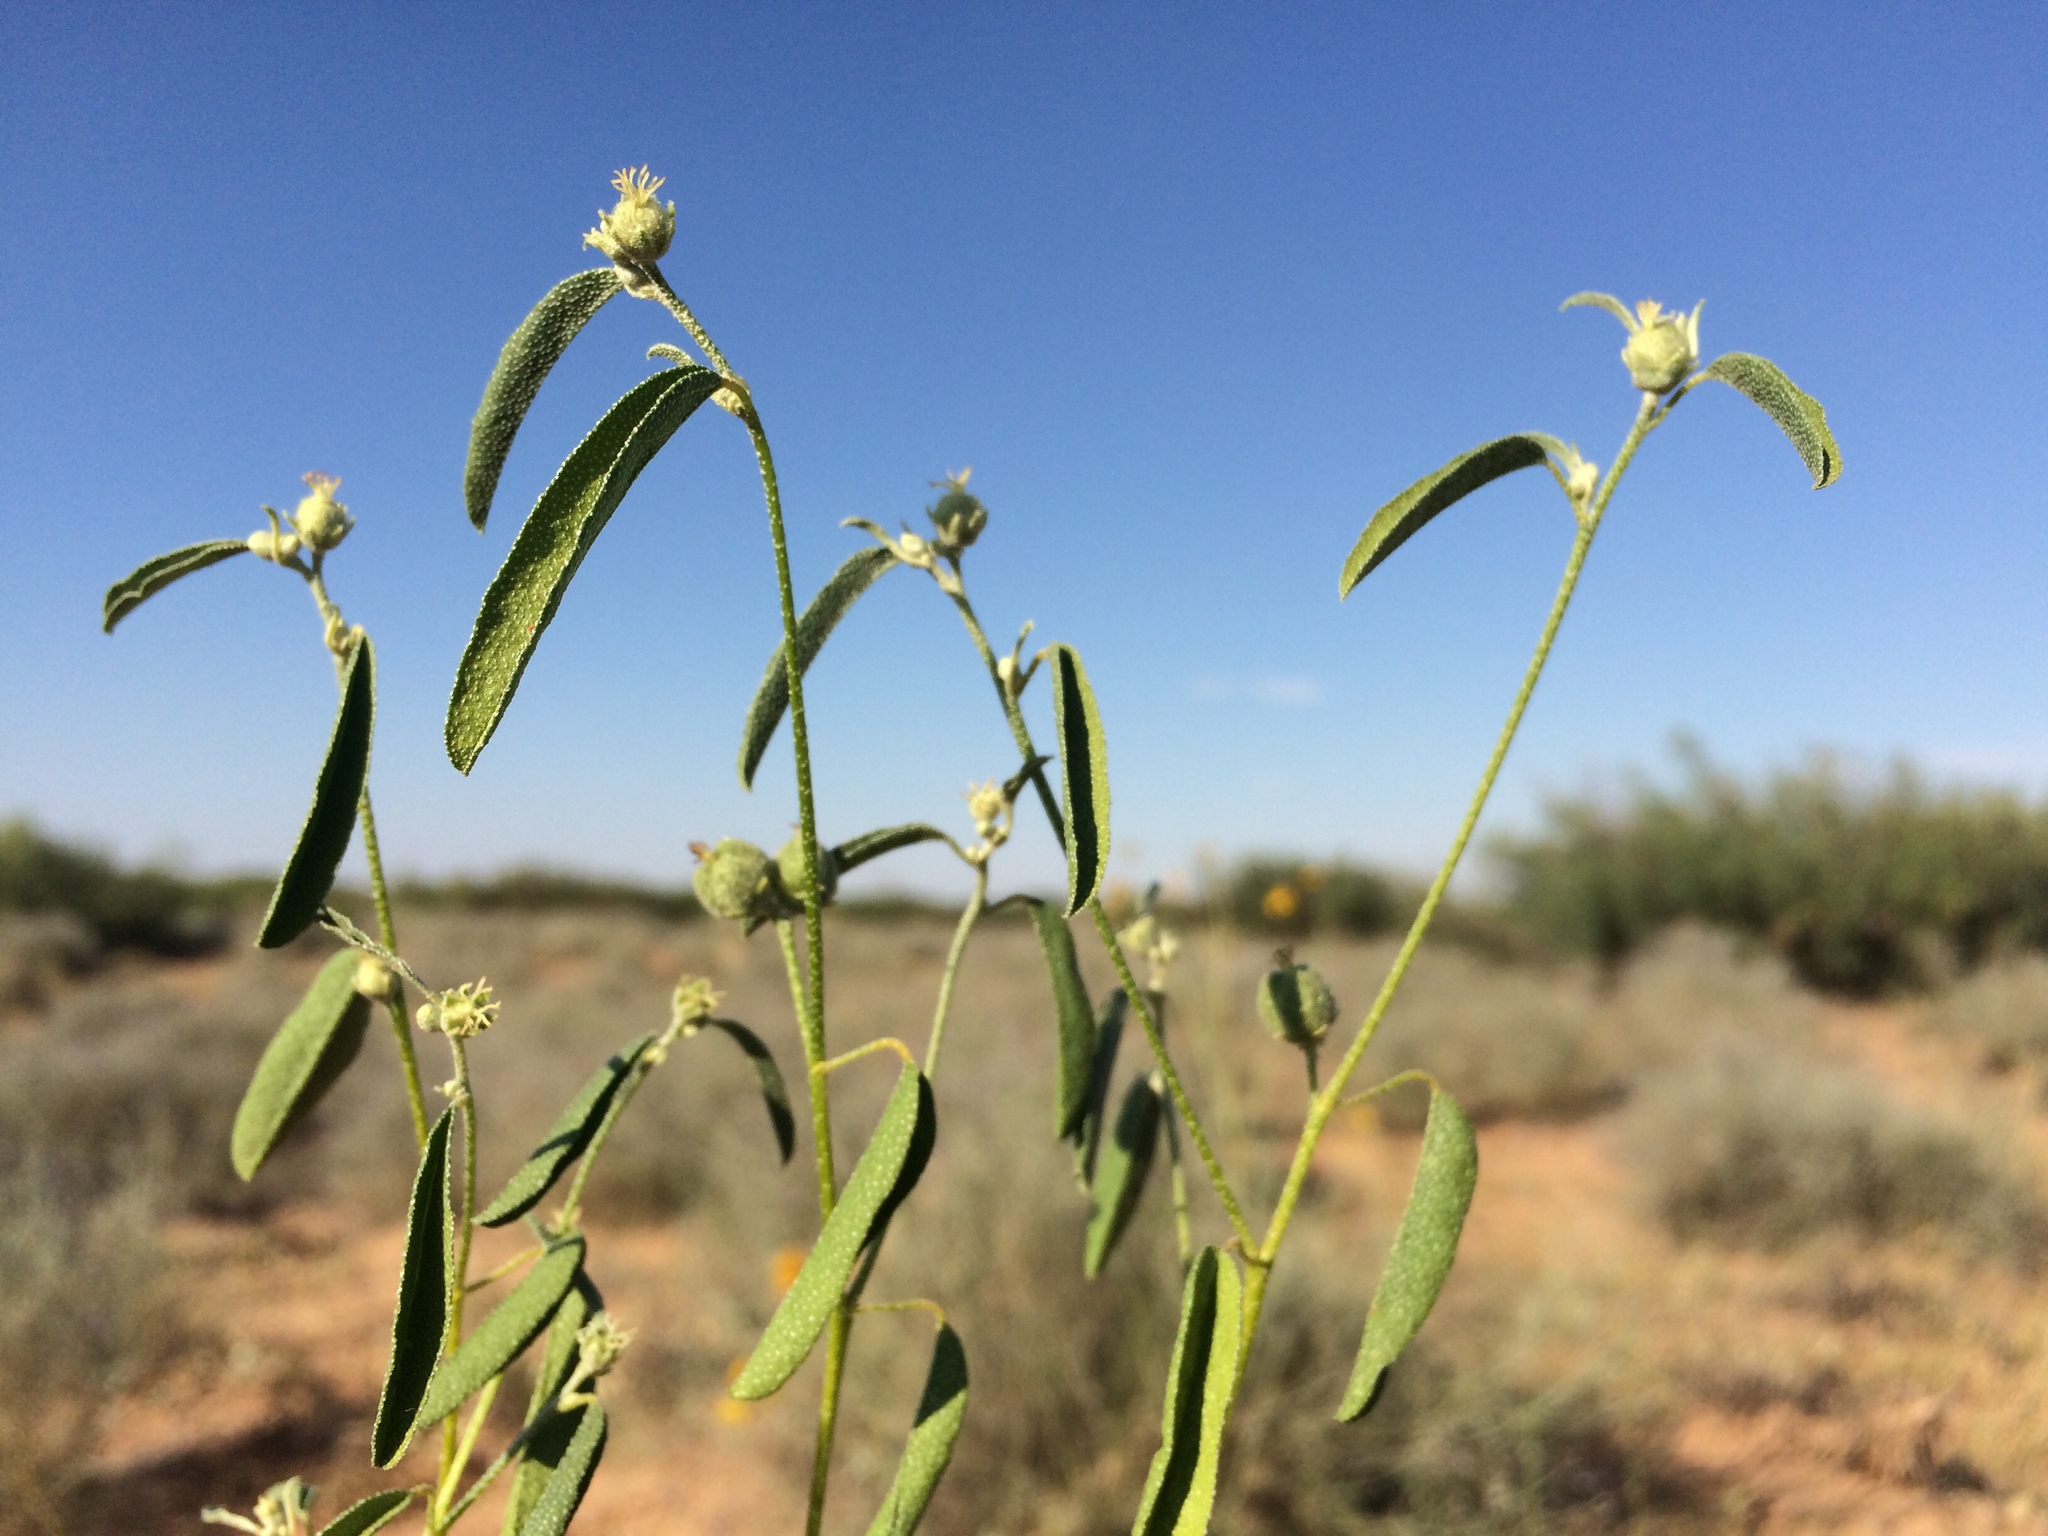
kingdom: Plantae
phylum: Tracheophyta
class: Magnoliopsida
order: Malpighiales
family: Euphorbiaceae
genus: Croton
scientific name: Croton texensis
